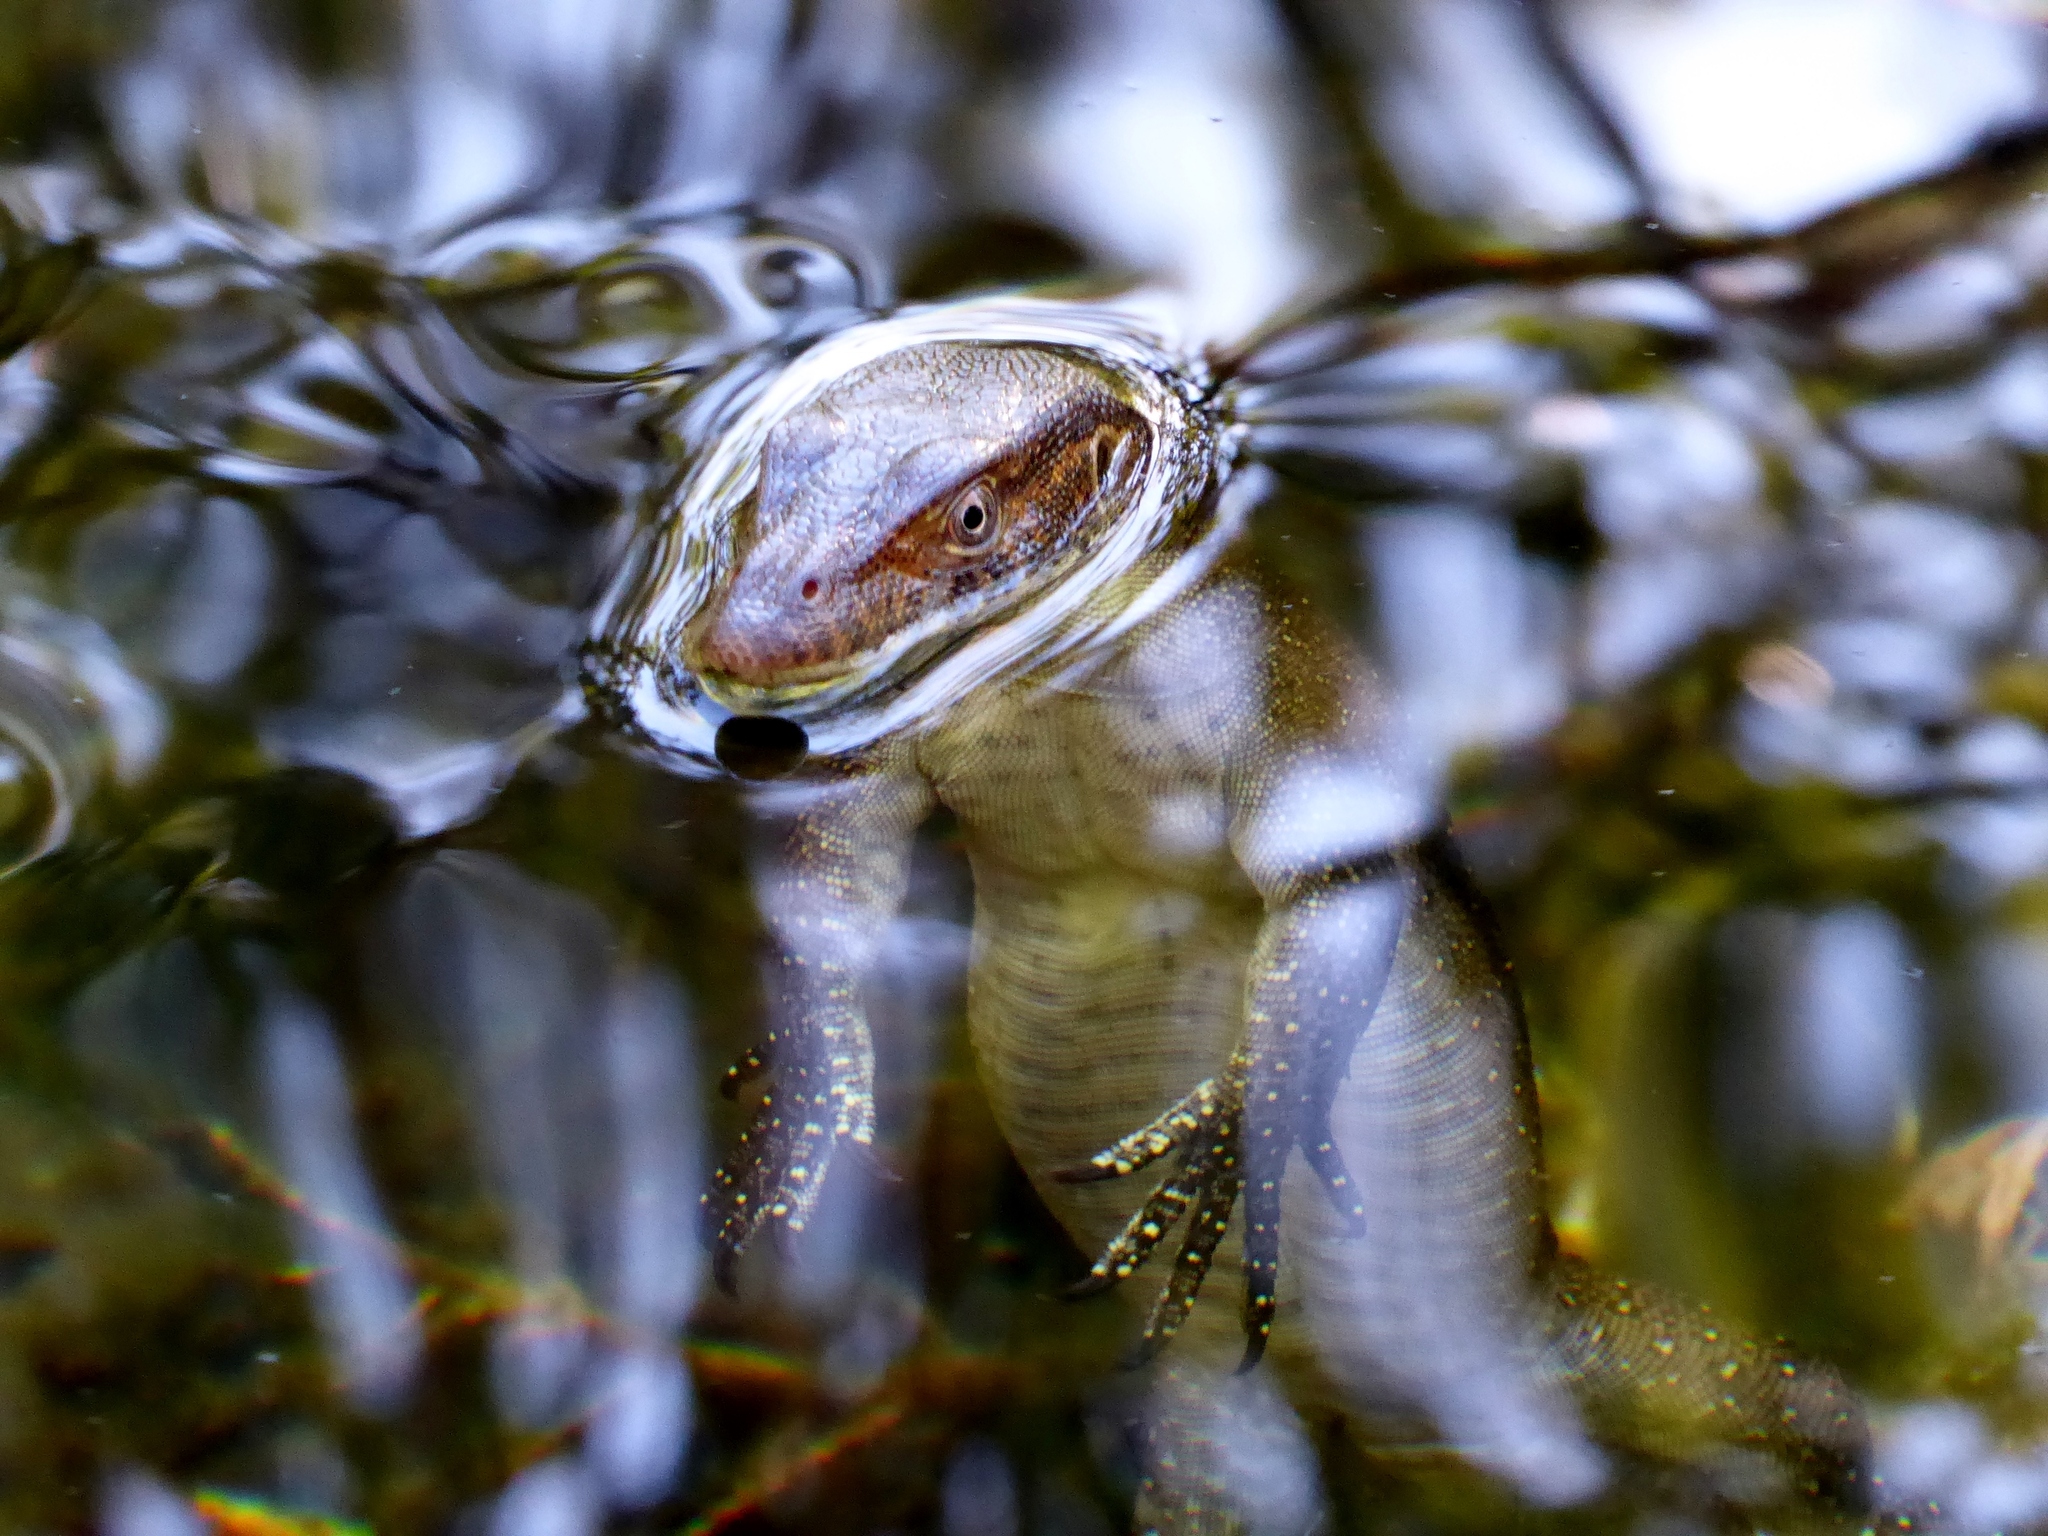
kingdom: Animalia
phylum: Chordata
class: Squamata
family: Varanidae
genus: Varanus
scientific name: Varanus mertensi
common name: Mertens's water monitor
